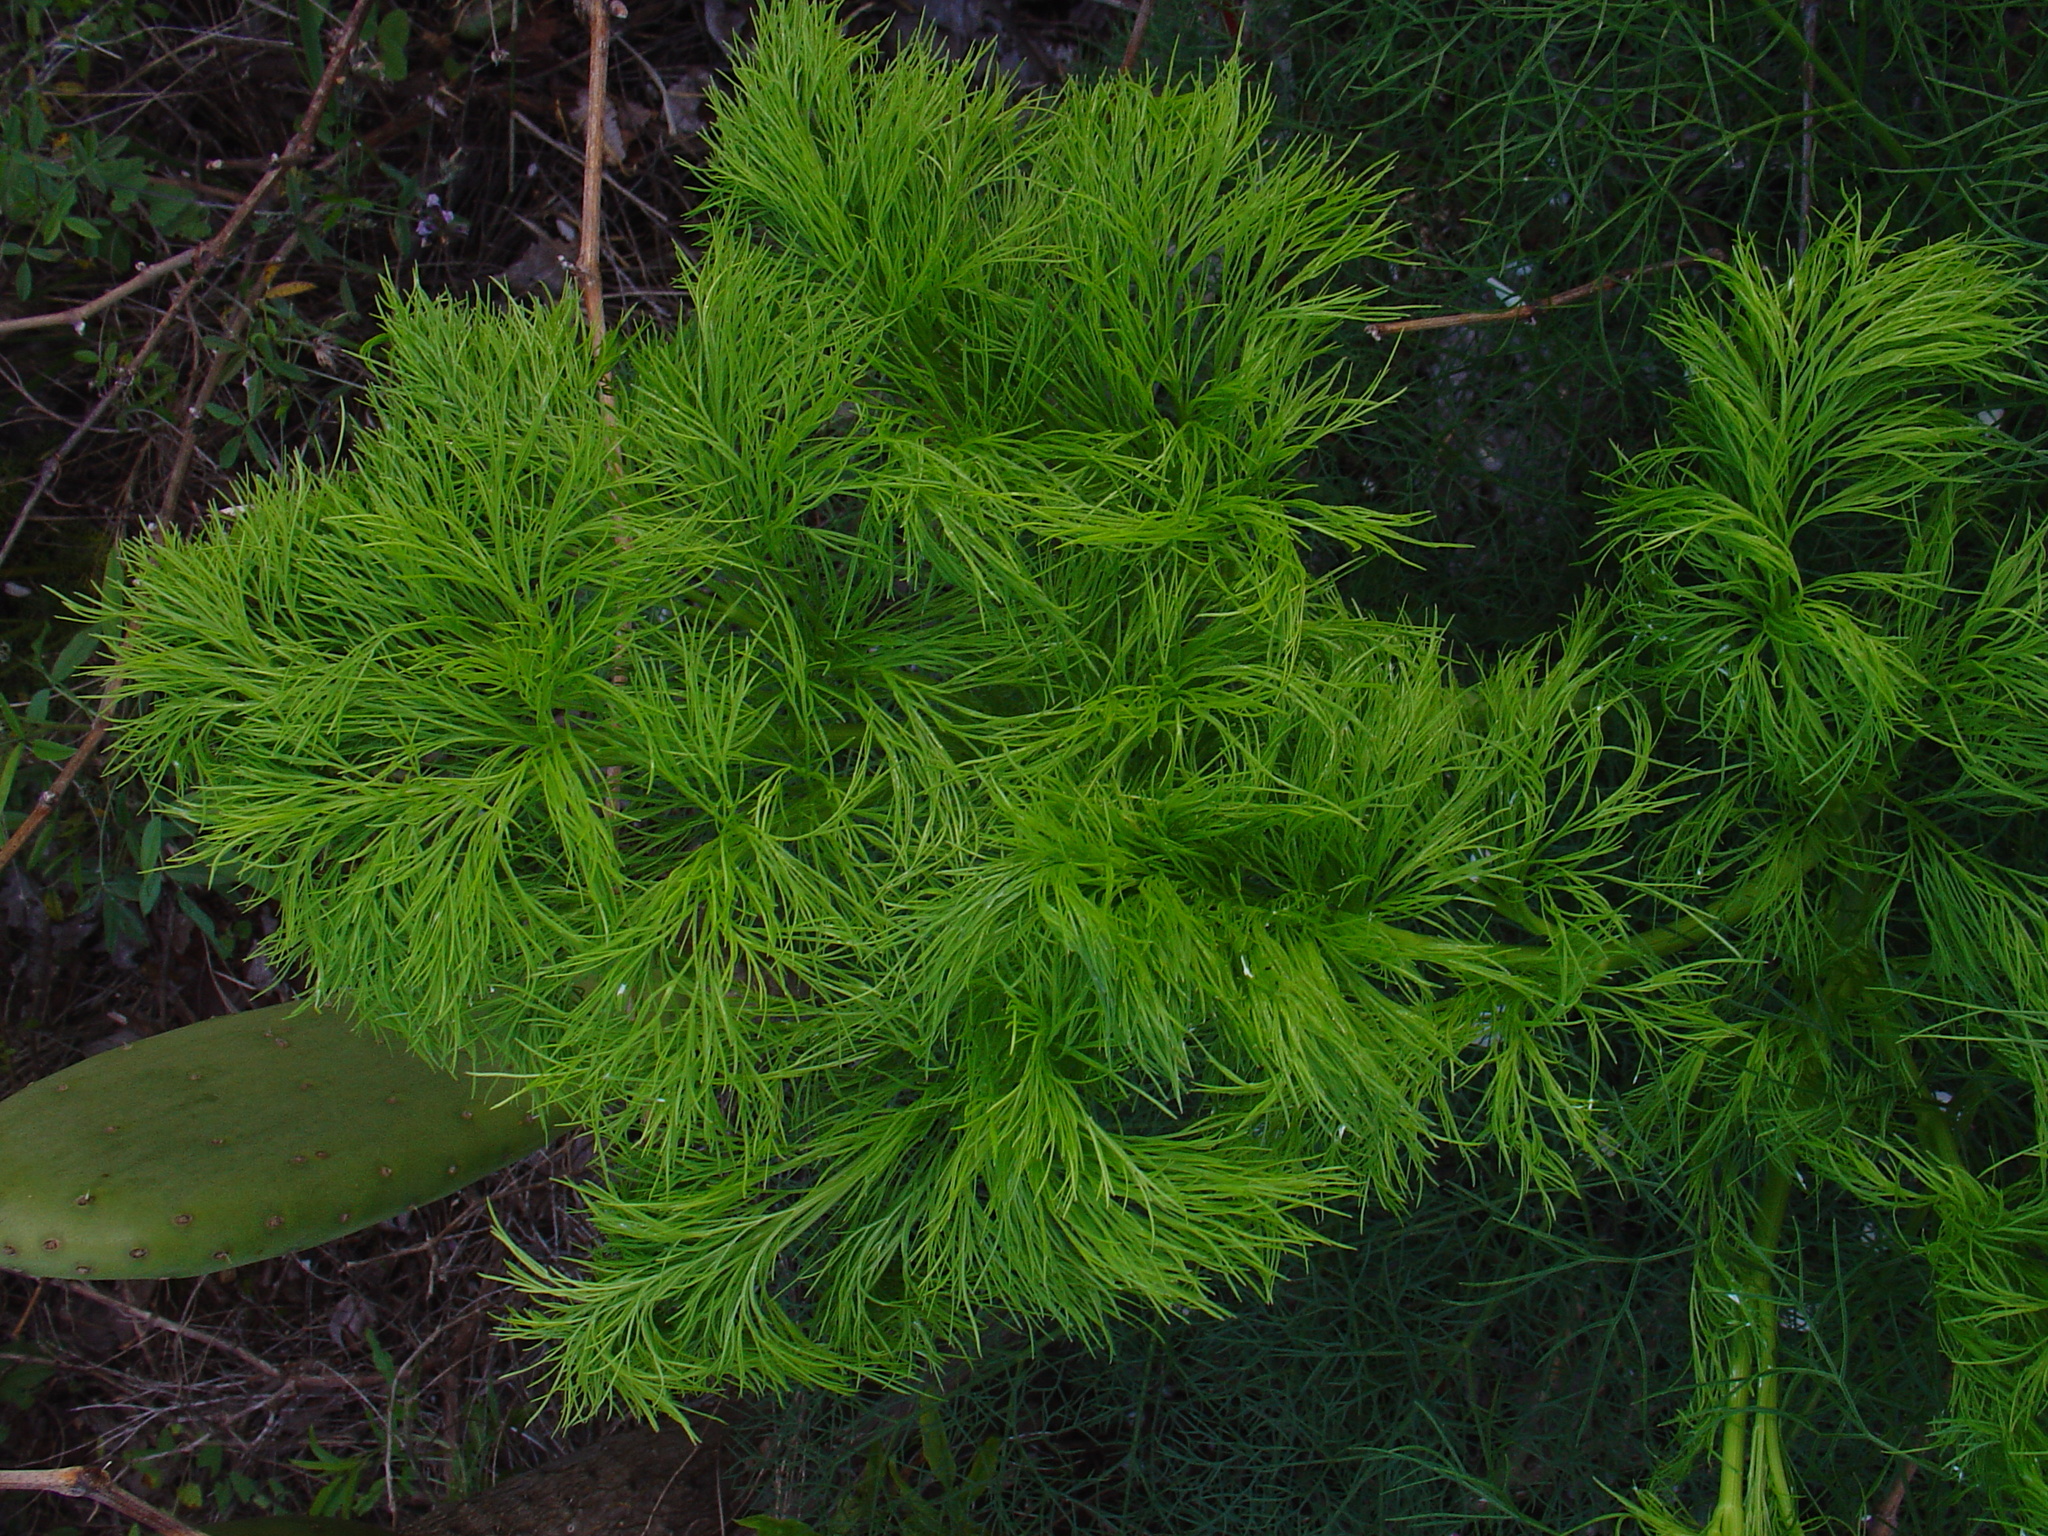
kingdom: Plantae
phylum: Tracheophyta
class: Magnoliopsida
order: Apiales
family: Apiaceae
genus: Foeniculum
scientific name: Foeniculum vulgare
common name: Fennel
